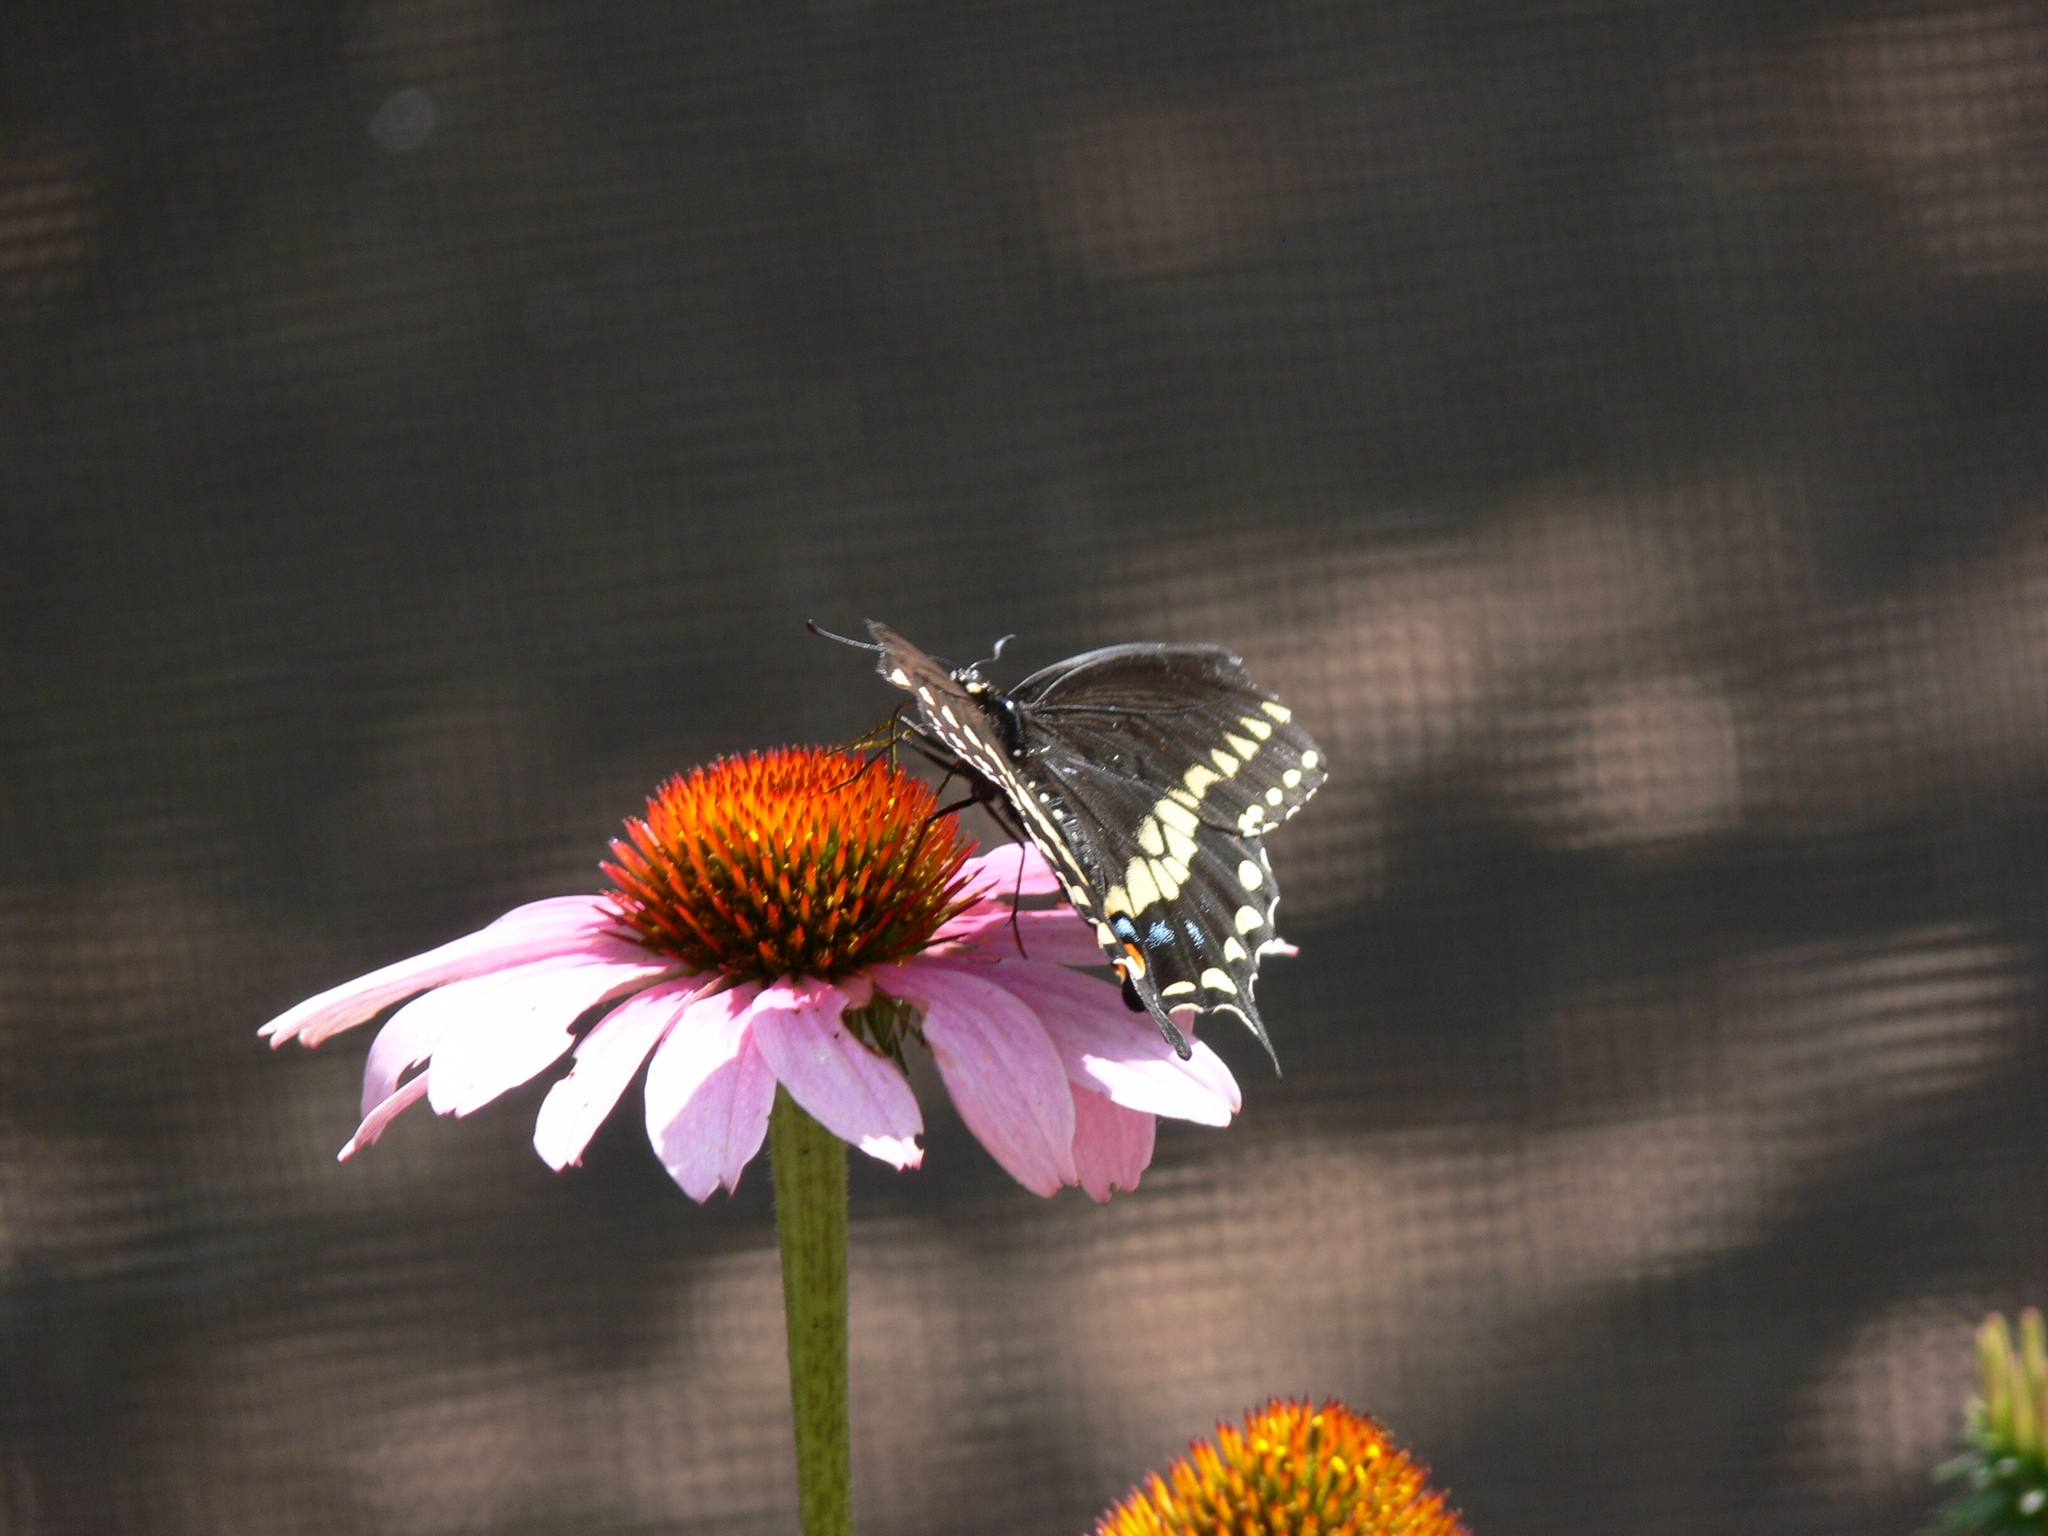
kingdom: Animalia
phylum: Arthropoda
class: Insecta
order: Lepidoptera
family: Papilionidae
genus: Papilio
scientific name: Papilio polyxenes
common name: Black swallowtail
